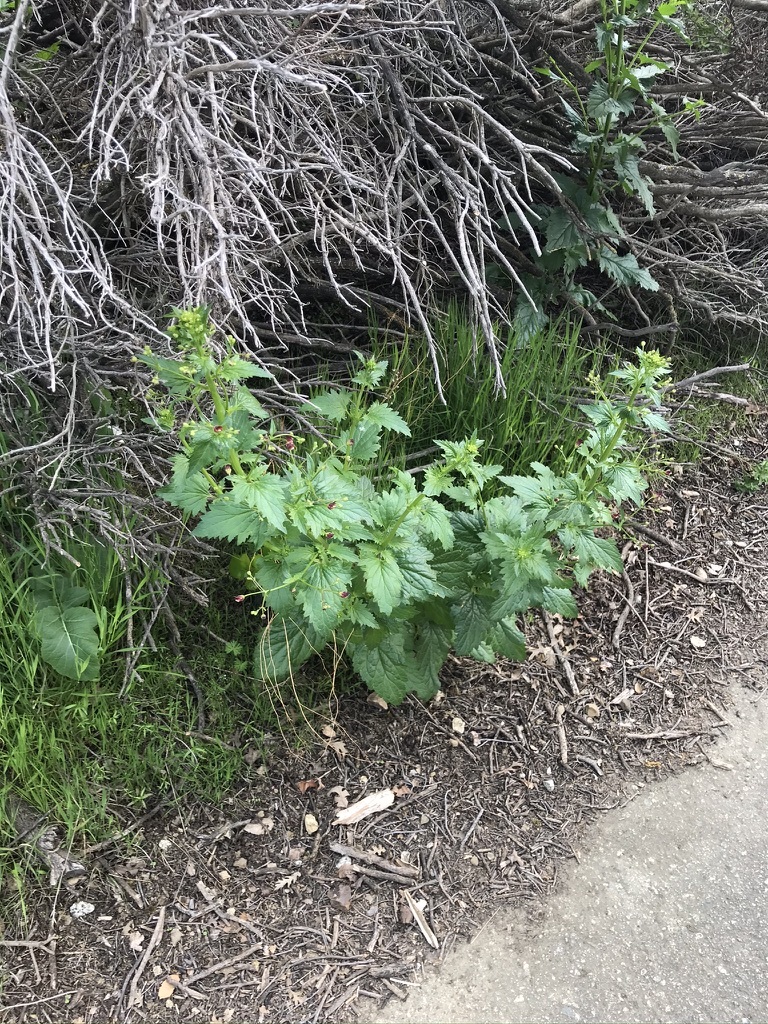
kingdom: Plantae
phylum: Tracheophyta
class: Magnoliopsida
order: Lamiales
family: Scrophulariaceae
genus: Scrophularia
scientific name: Scrophularia californica
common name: California figwort
